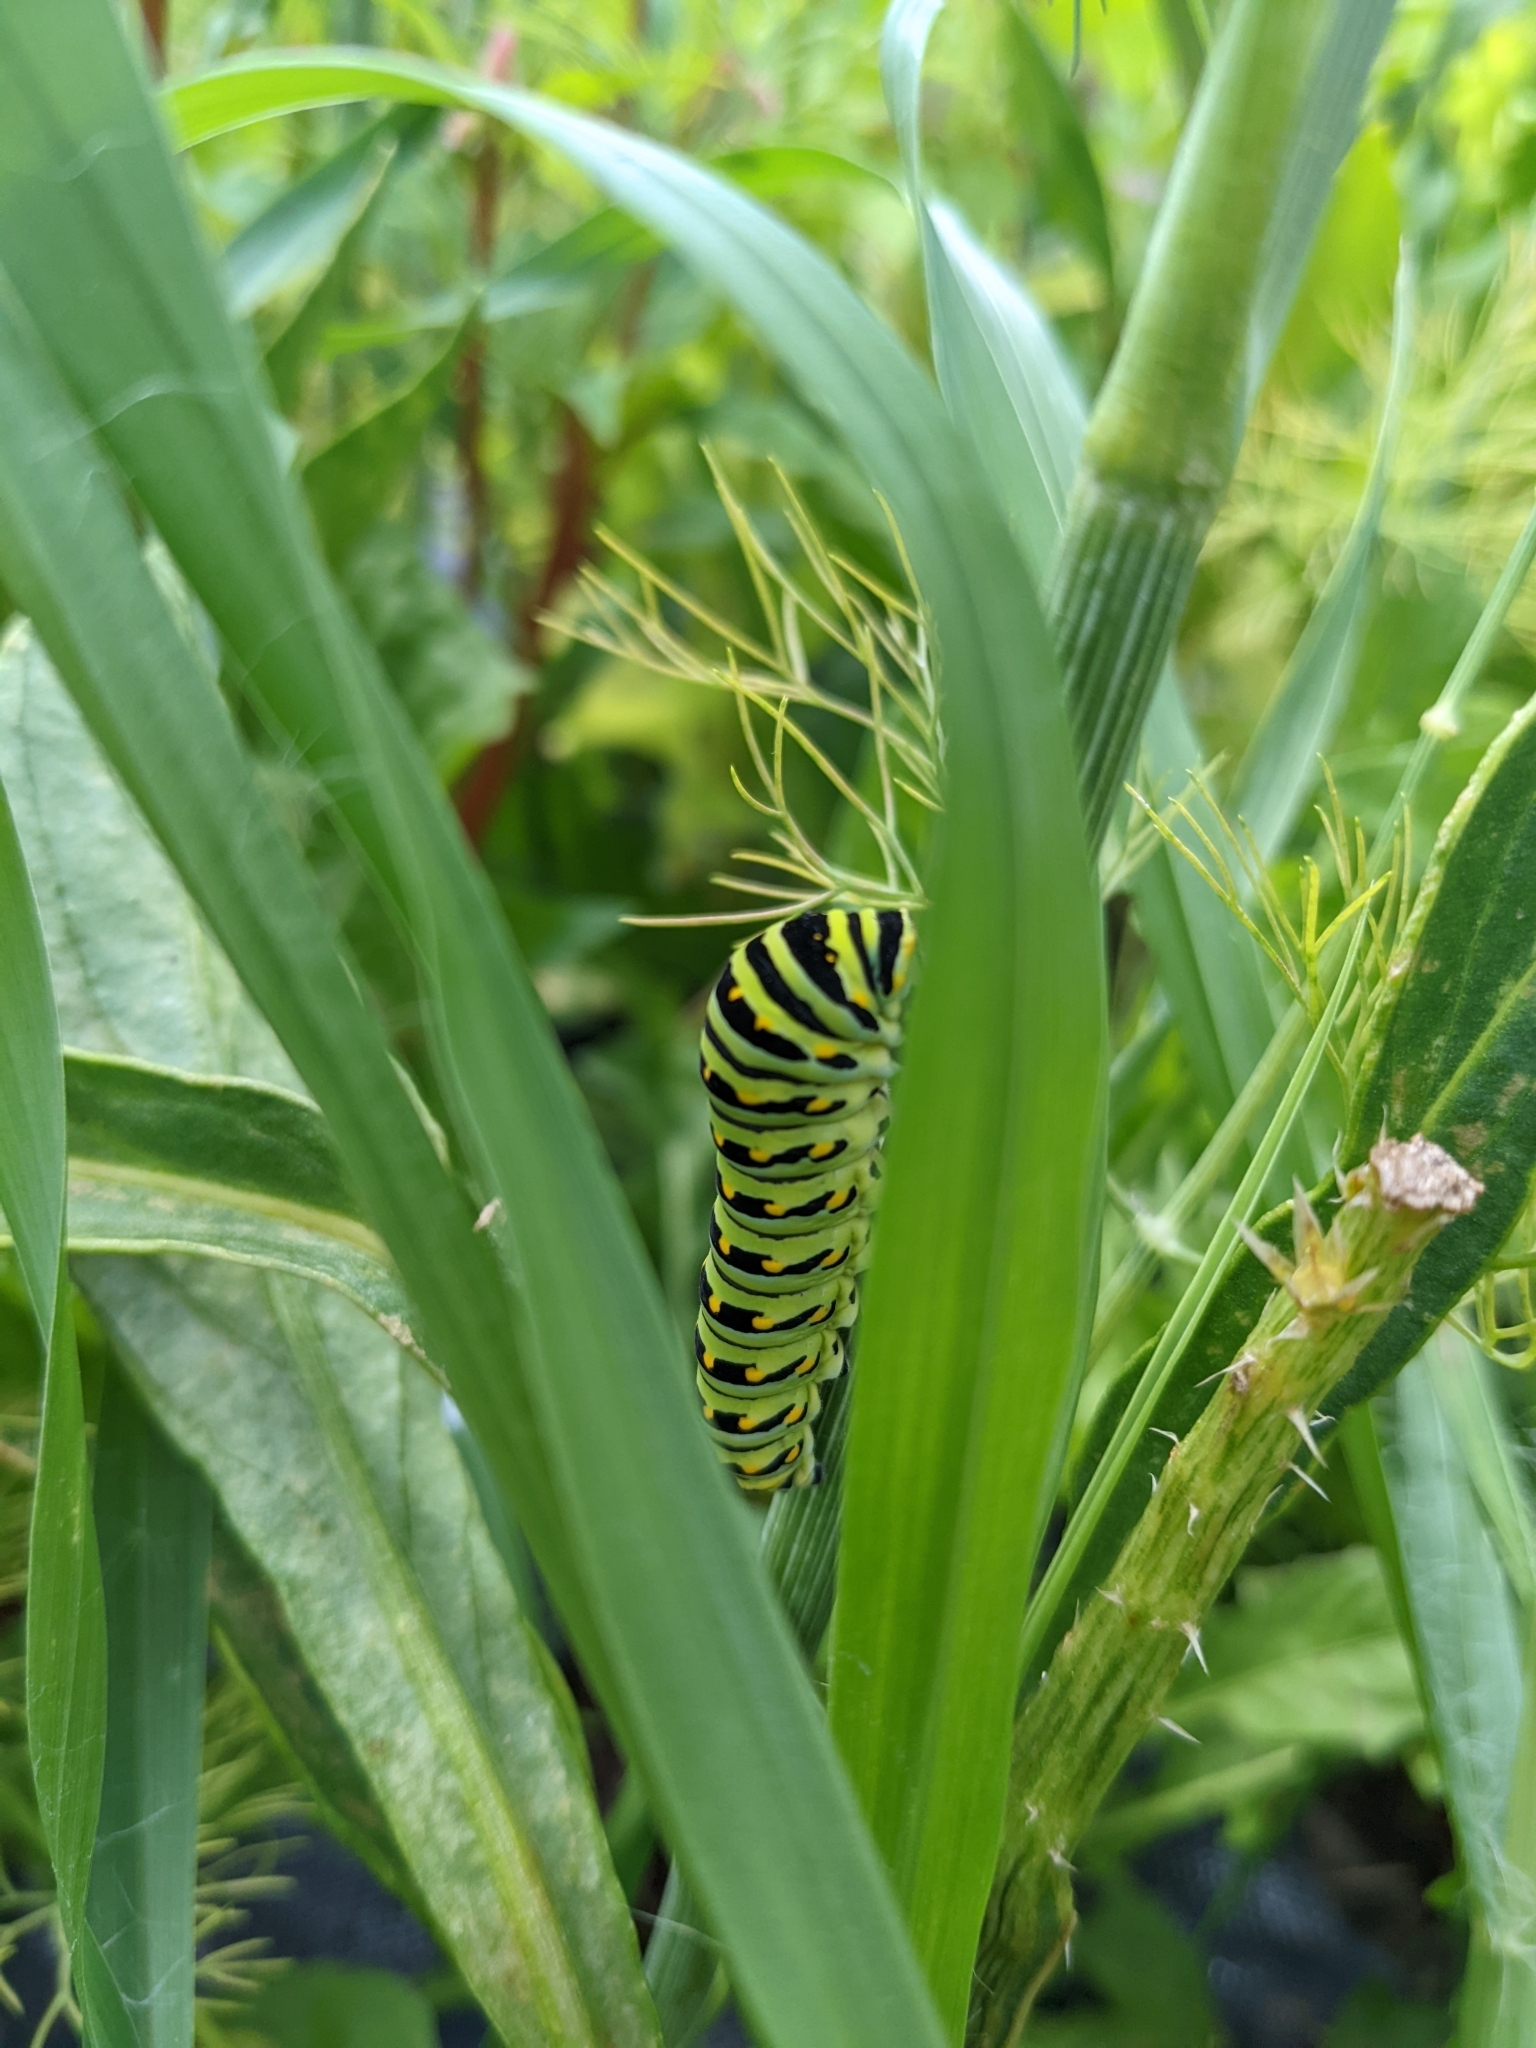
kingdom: Animalia
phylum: Arthropoda
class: Insecta
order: Lepidoptera
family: Papilionidae
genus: Papilio
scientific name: Papilio polyxenes
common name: Black swallowtail
